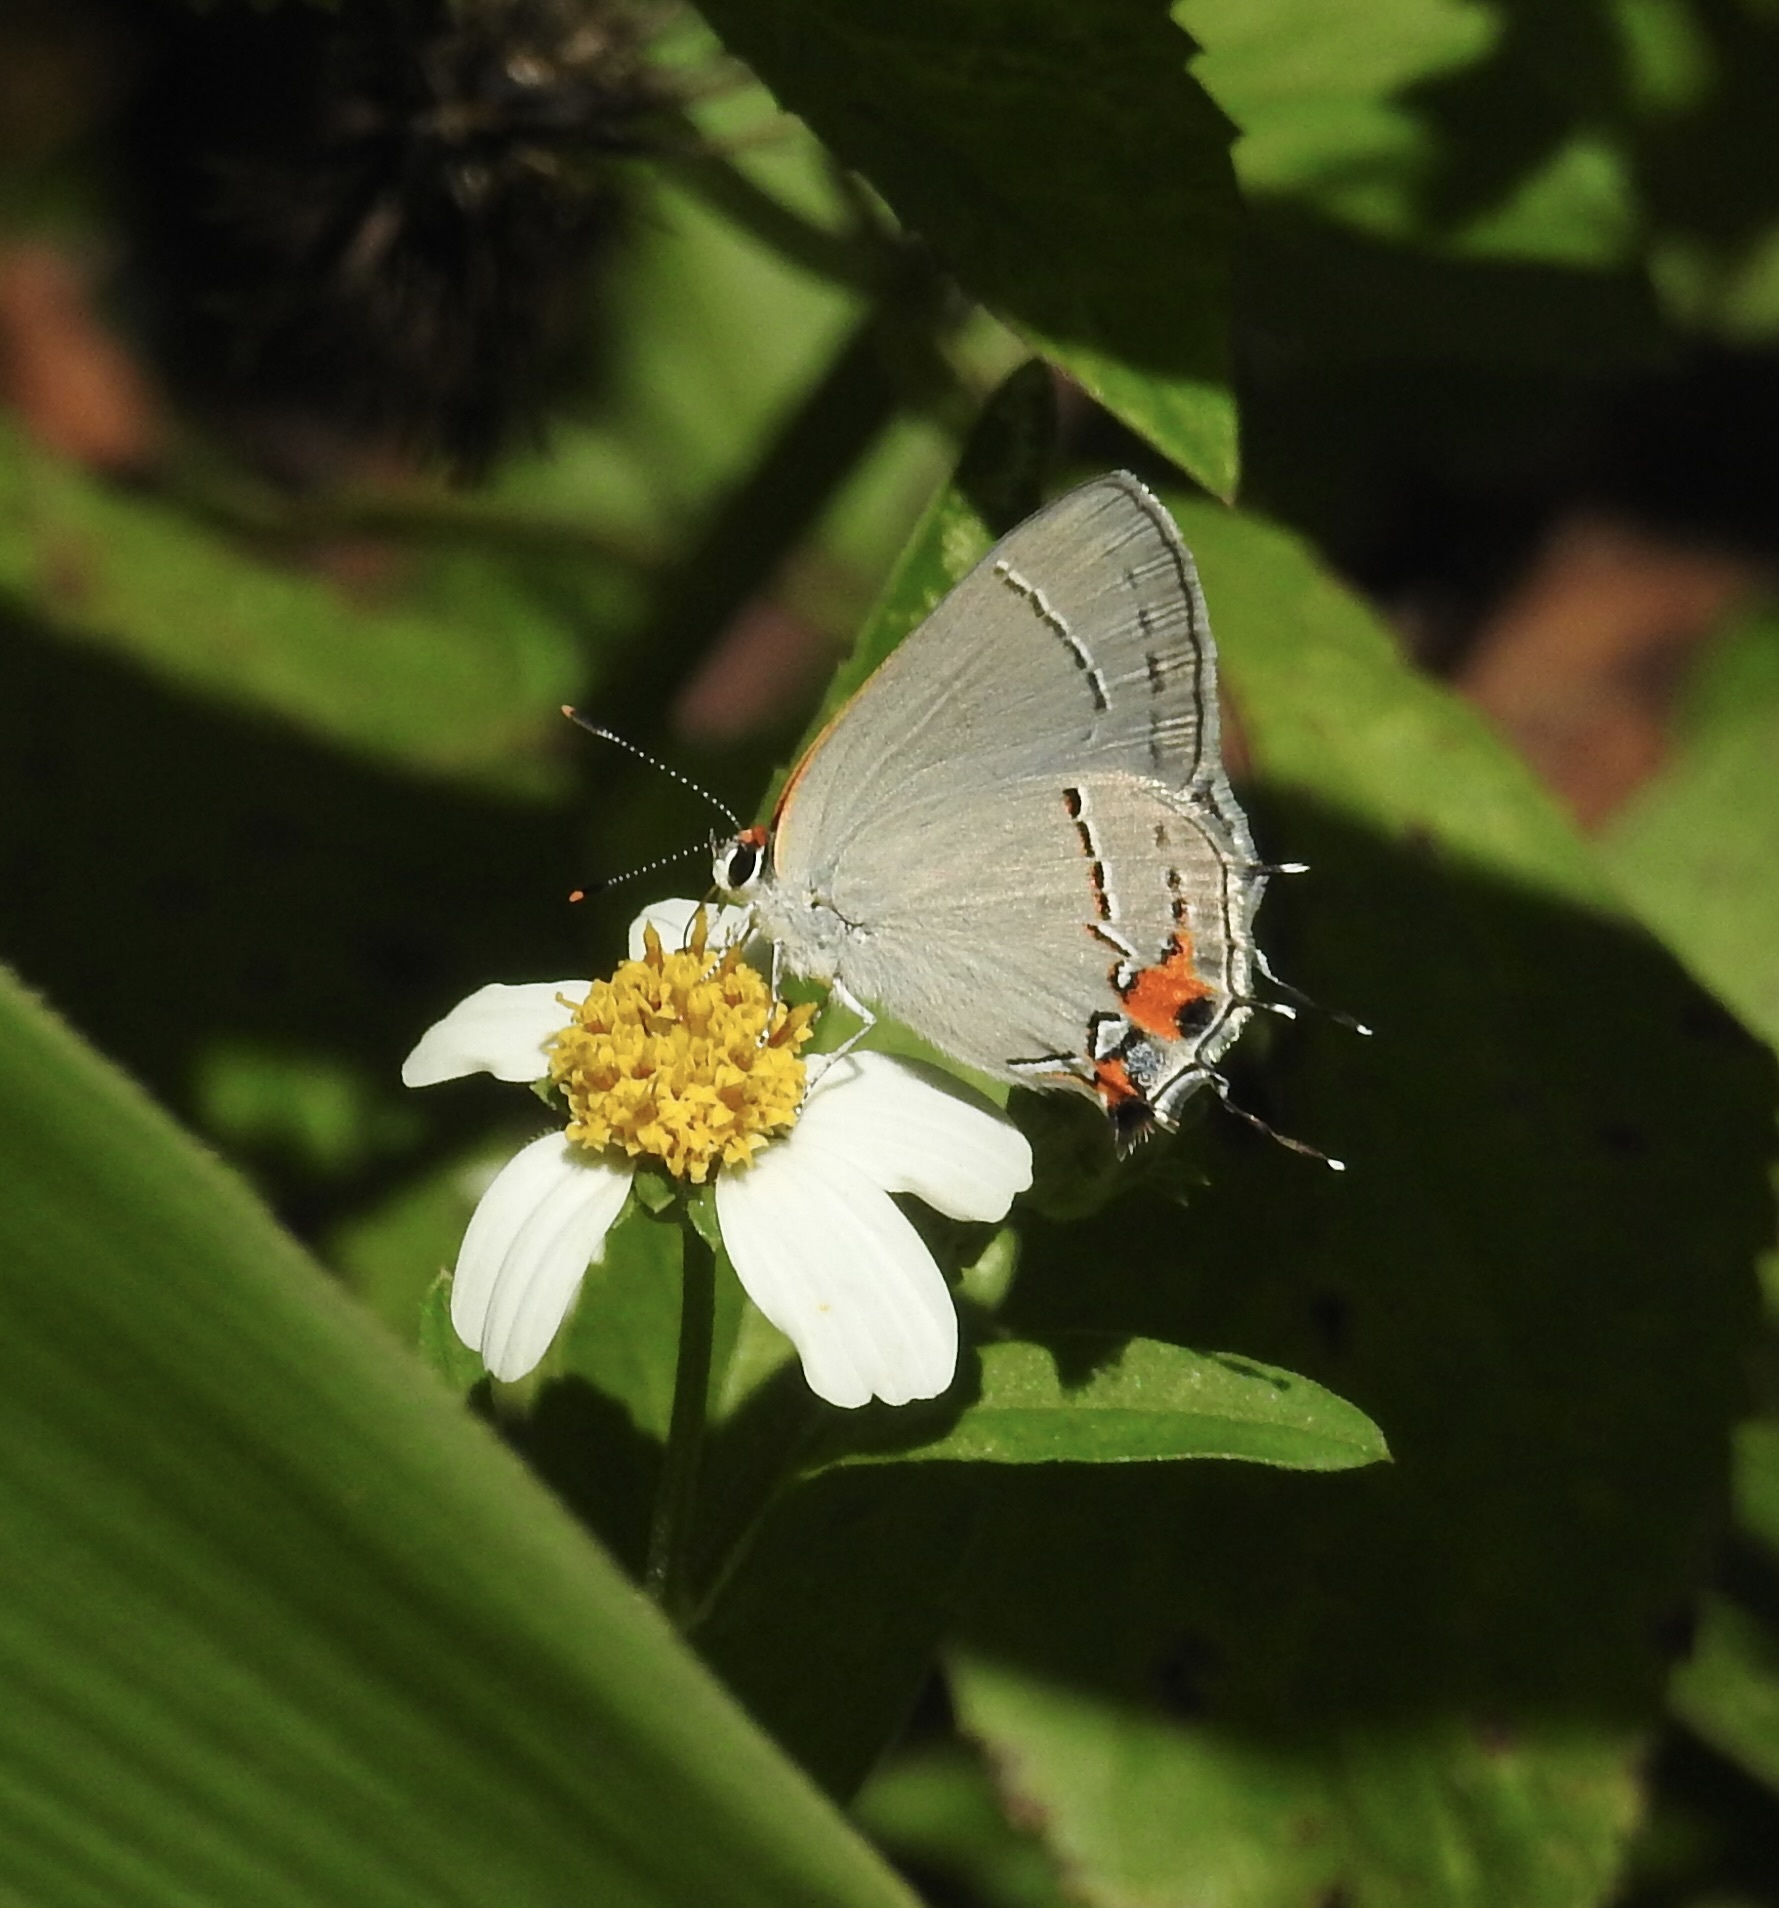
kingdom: Animalia
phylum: Arthropoda
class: Insecta
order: Lepidoptera
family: Lycaenidae
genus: Strymon
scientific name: Strymon melinus
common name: Gray hairstreak
